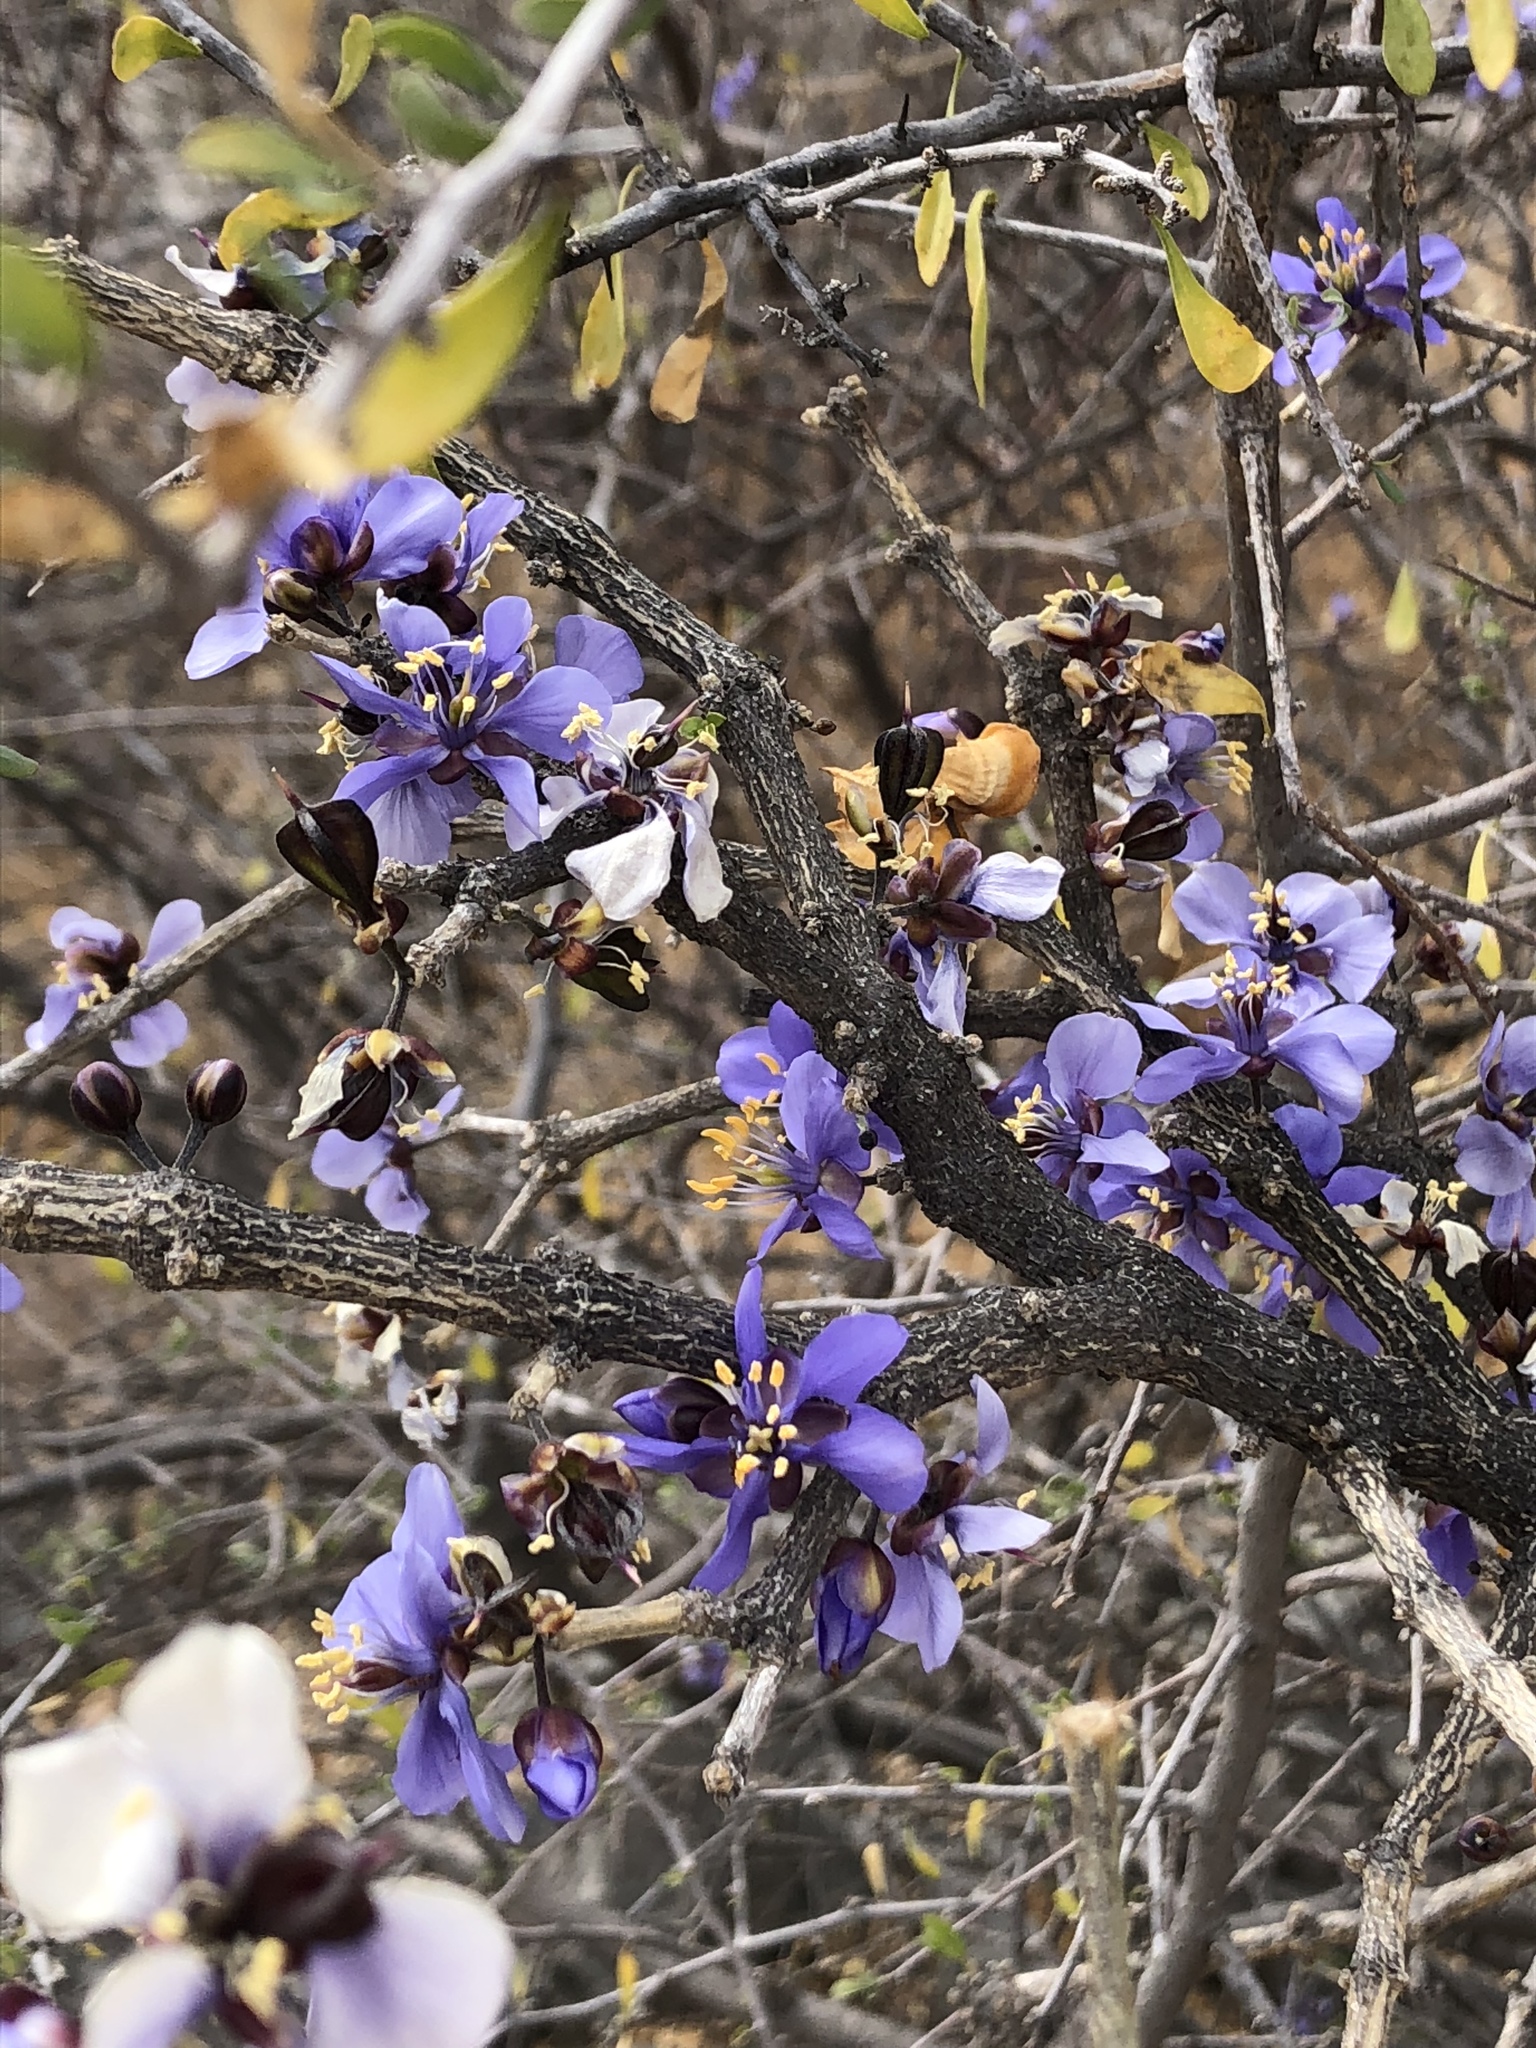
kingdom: Plantae
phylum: Tracheophyta
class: Magnoliopsida
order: Zygophyllales
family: Zygophyllaceae
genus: Guaiacum
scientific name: Guaiacum coulteri
